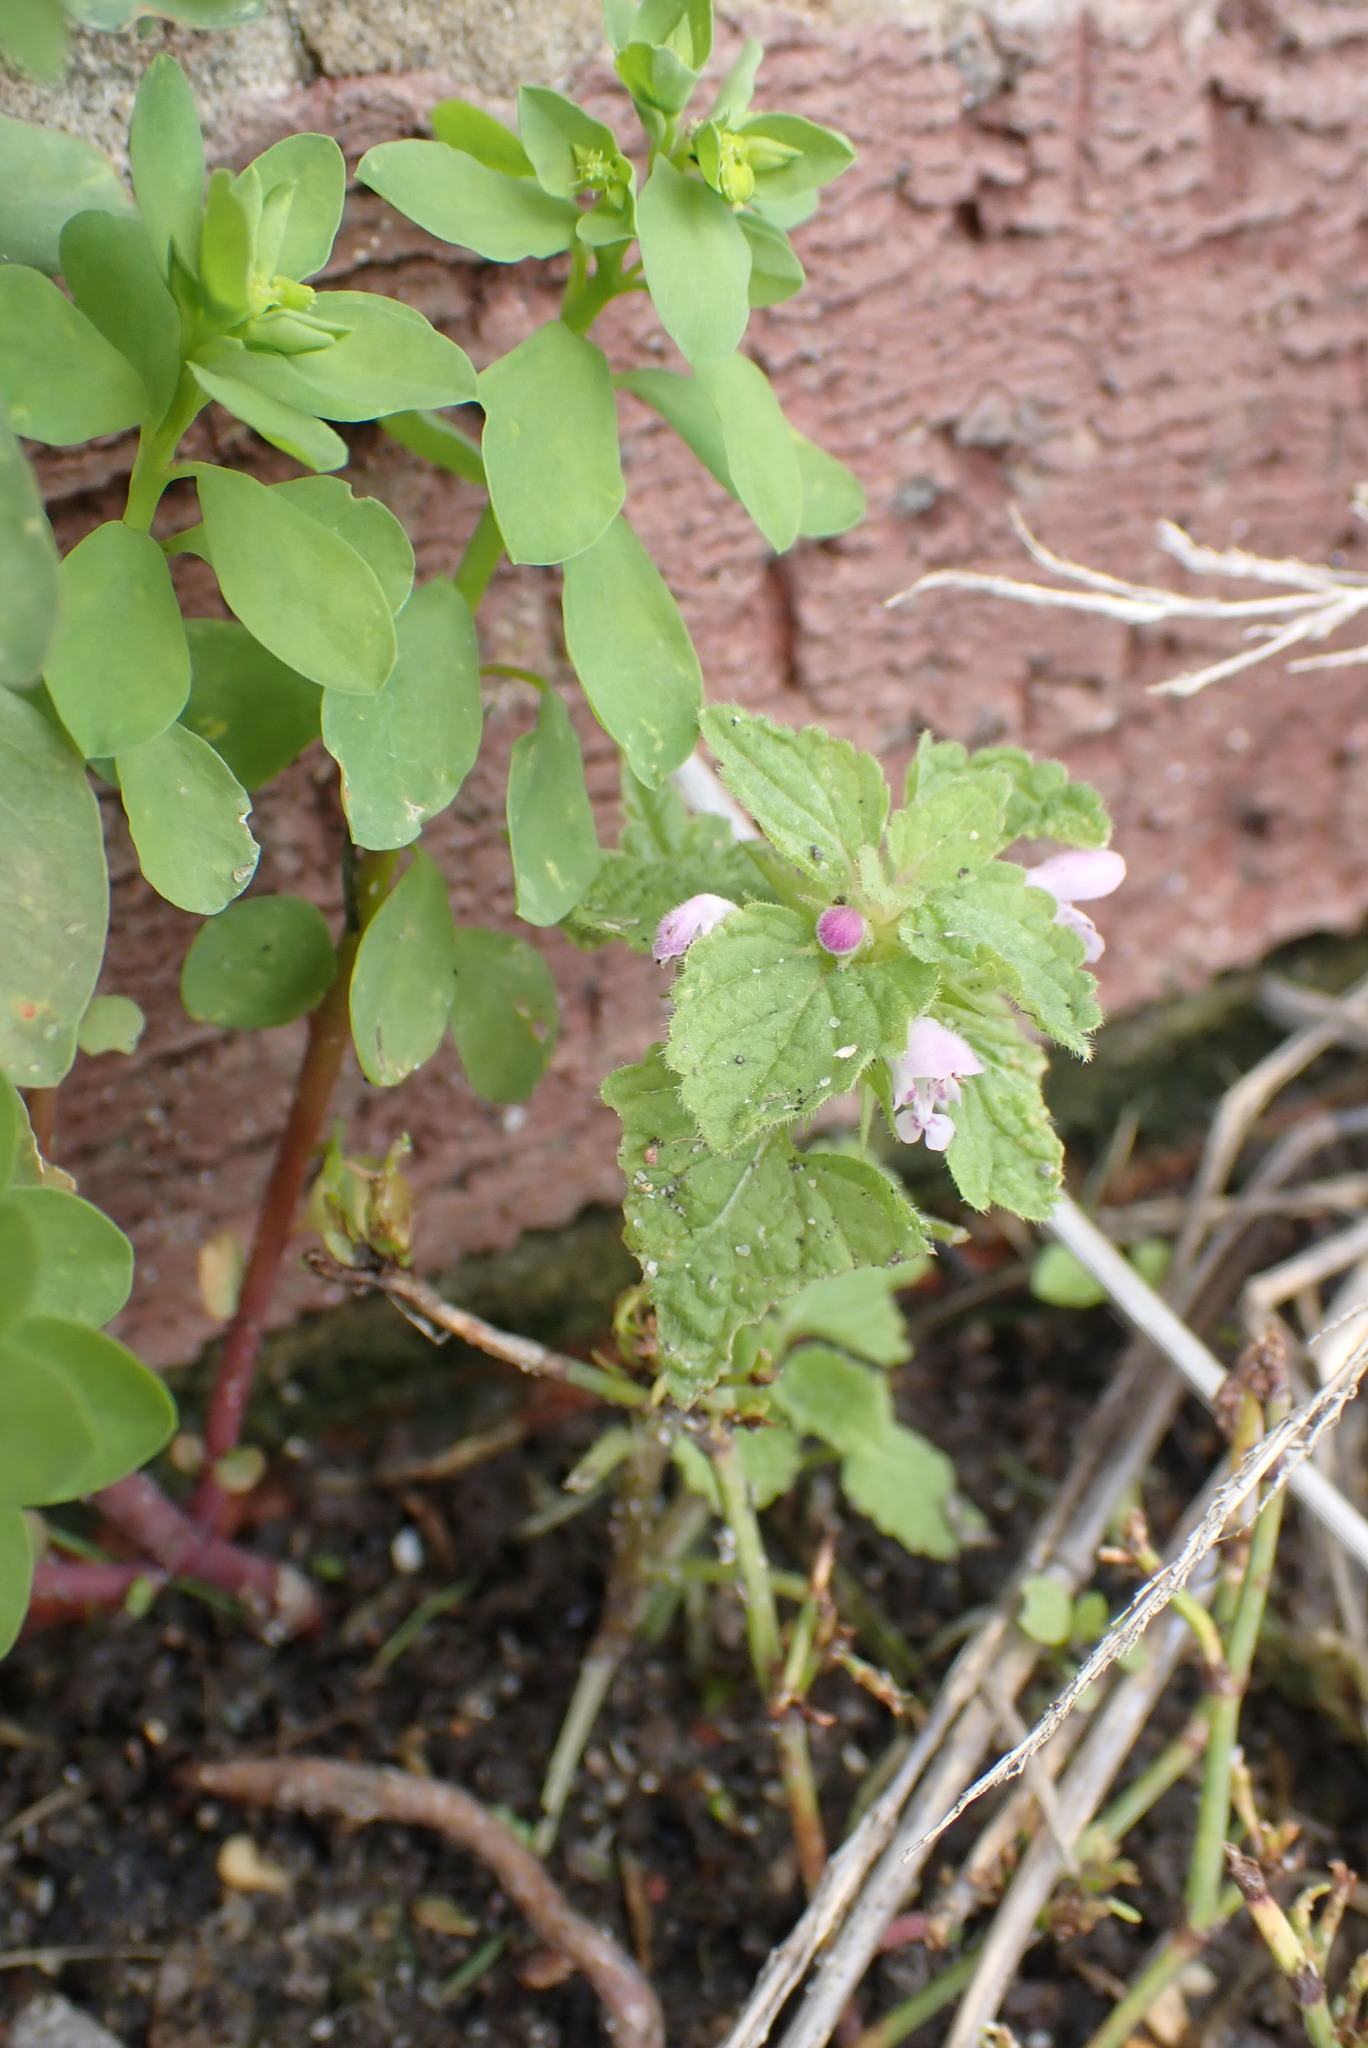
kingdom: Plantae
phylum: Tracheophyta
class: Magnoliopsida
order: Lamiales
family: Lamiaceae
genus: Lamium
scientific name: Lamium purpureum
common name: Red dead-nettle
